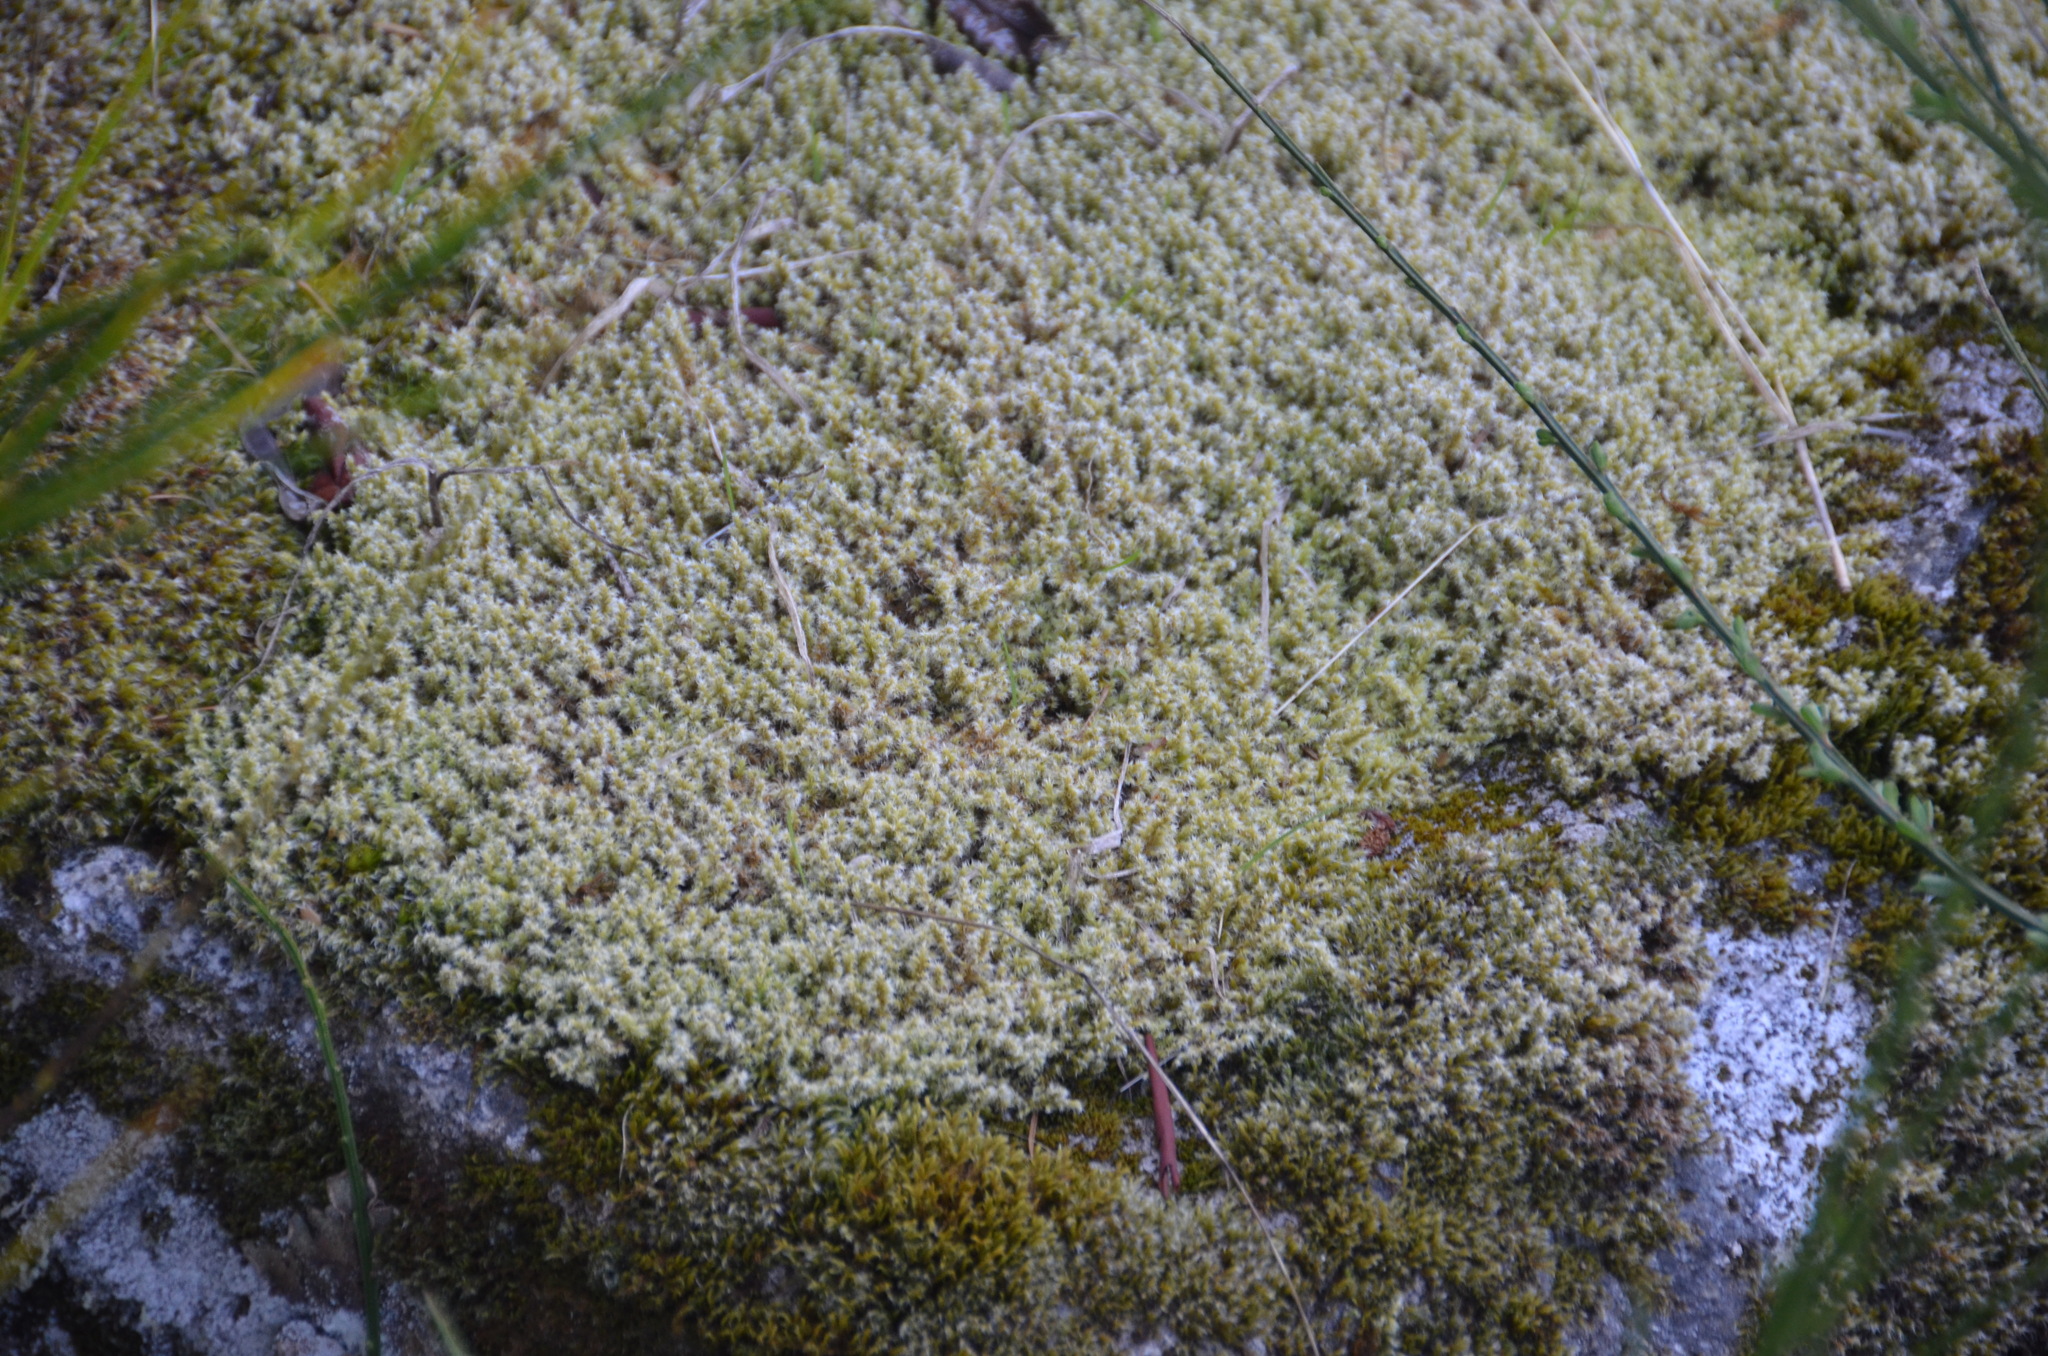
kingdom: Plantae
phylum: Bryophyta
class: Bryopsida
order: Grimmiales
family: Grimmiaceae
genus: Niphotrichum
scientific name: Niphotrichum elongatum
